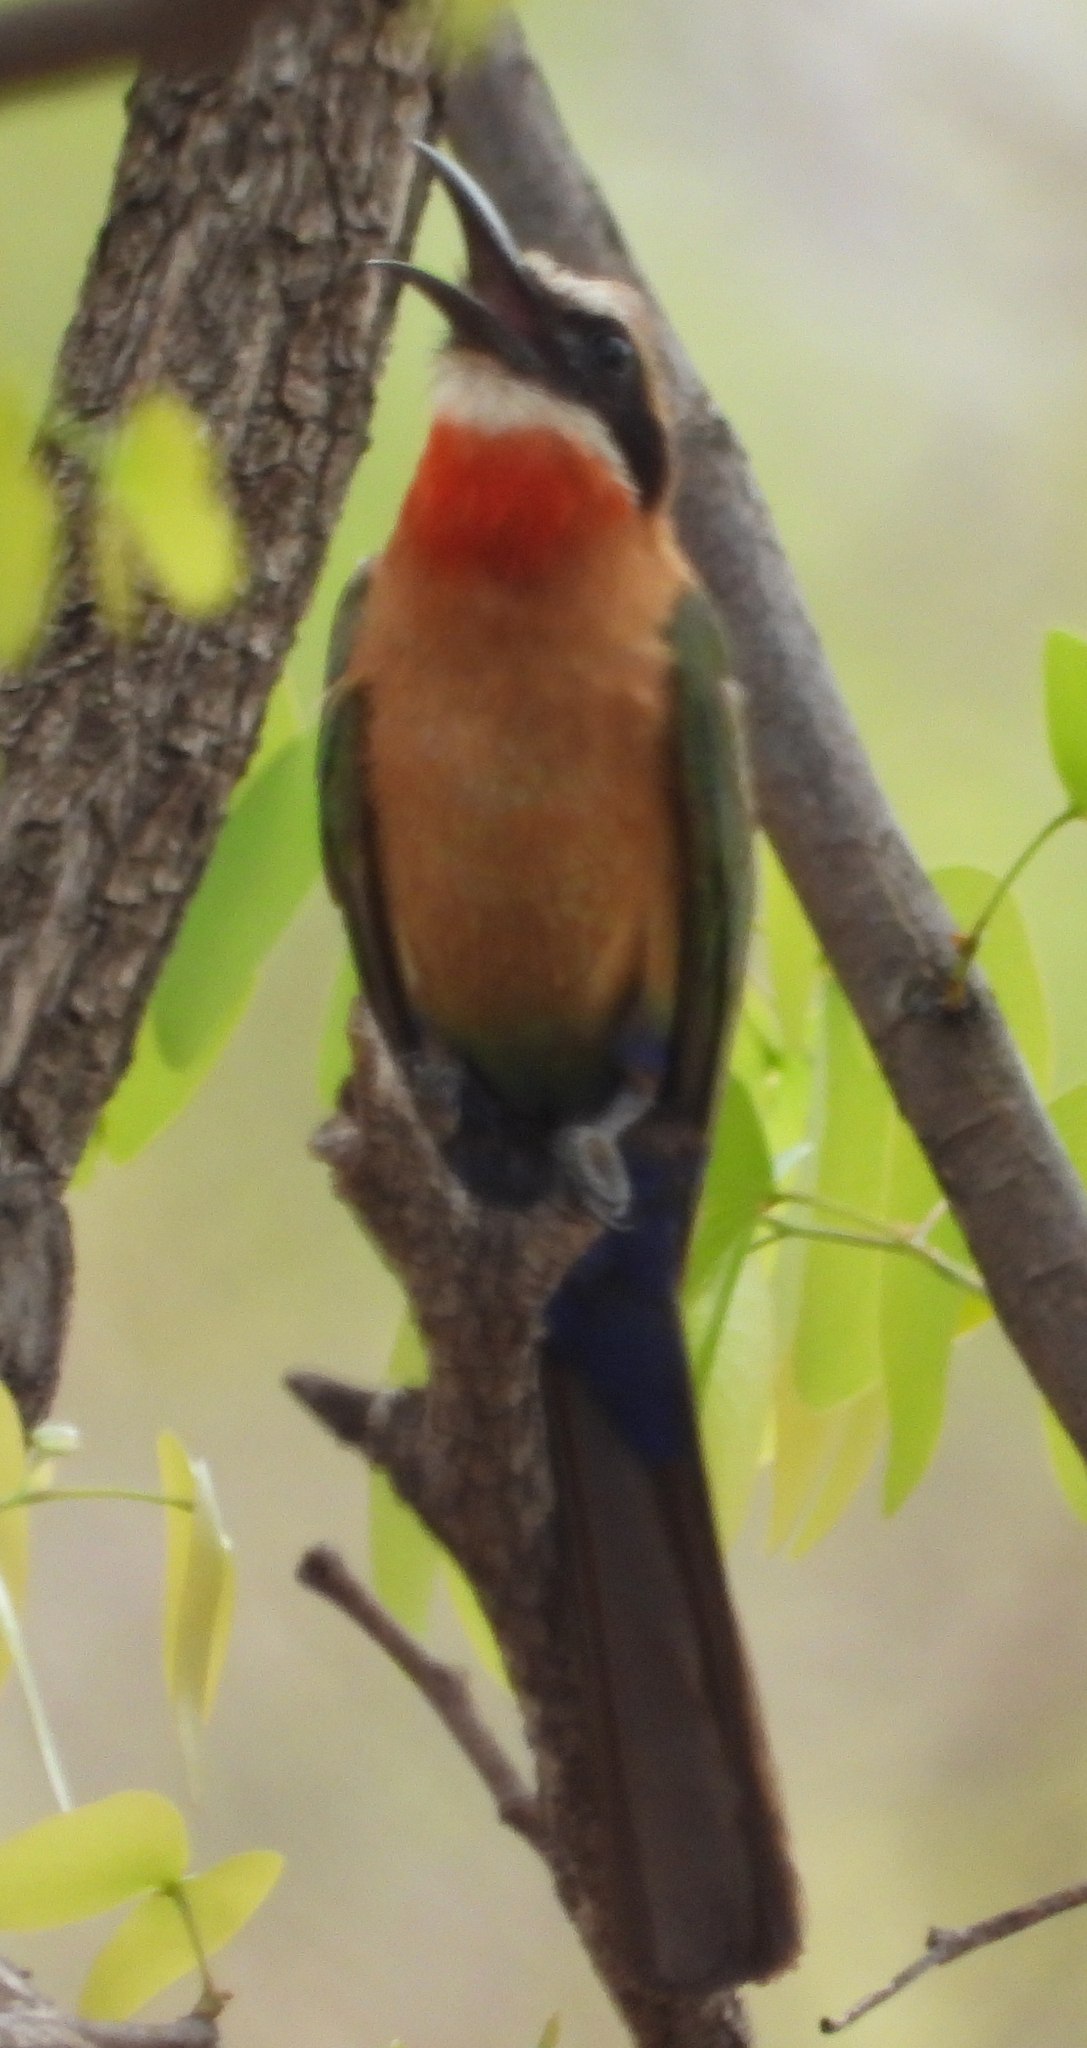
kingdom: Animalia
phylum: Chordata
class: Aves
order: Coraciiformes
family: Meropidae
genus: Merops
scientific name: Merops bullockoides
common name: White-fronted bee-eater
